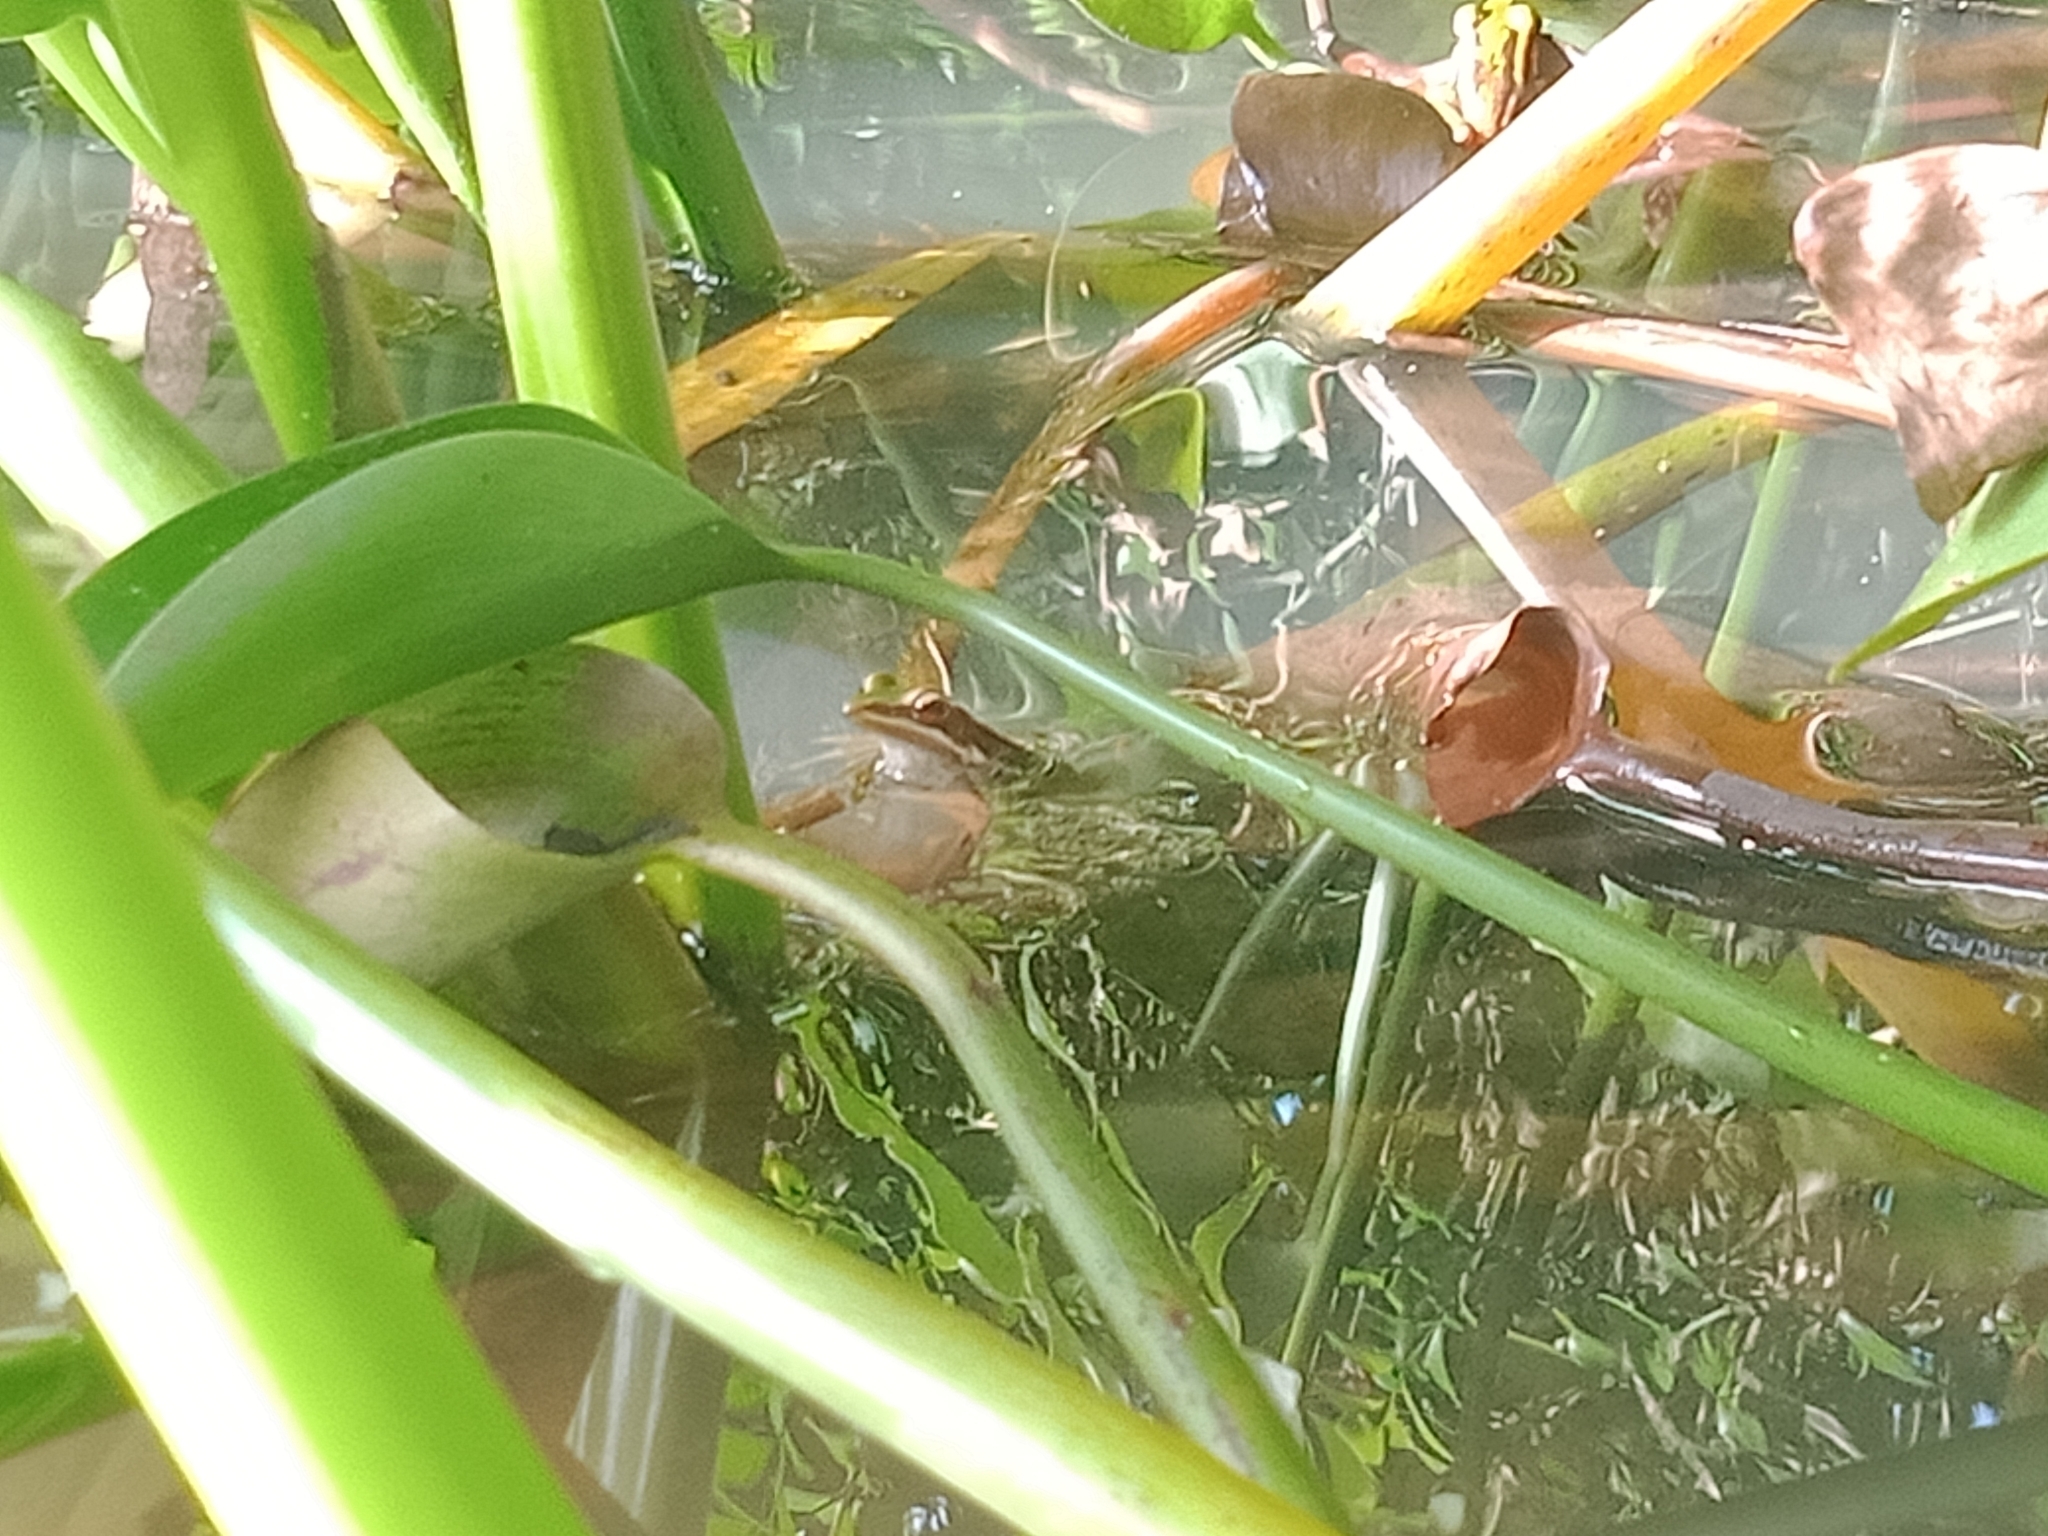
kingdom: Animalia
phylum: Chordata
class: Amphibia
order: Anura
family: Ranidae
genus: Hylarana
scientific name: Hylarana erythraea
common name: Common green frog/green paddy frog/leaf frog
